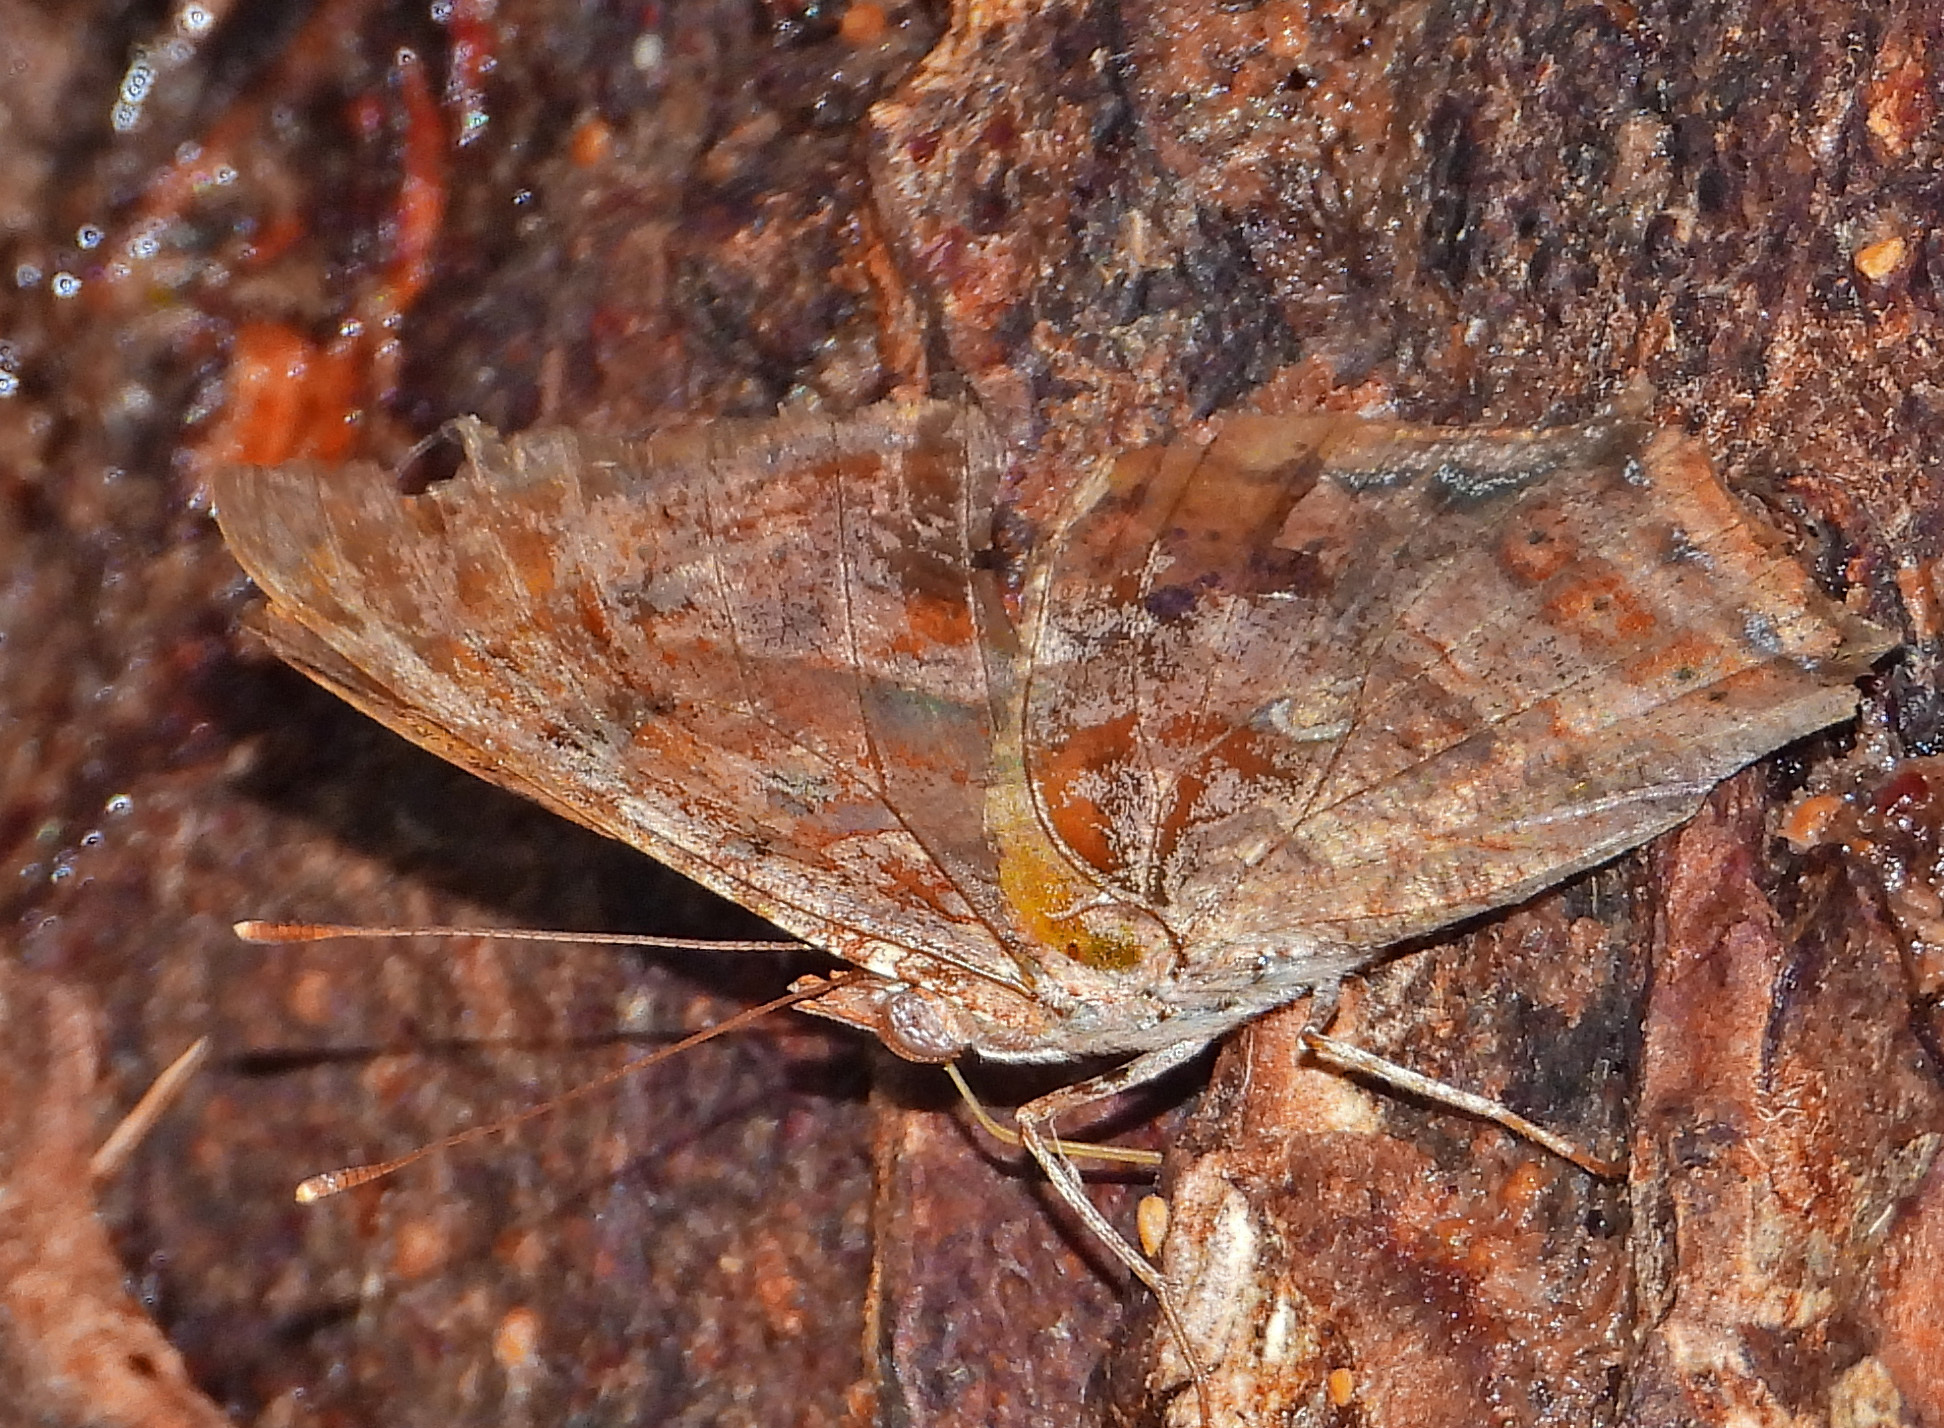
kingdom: Animalia
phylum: Arthropoda
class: Insecta
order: Lepidoptera
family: Nymphalidae
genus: Polygonia
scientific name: Polygonia interrogationis
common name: Question mark
